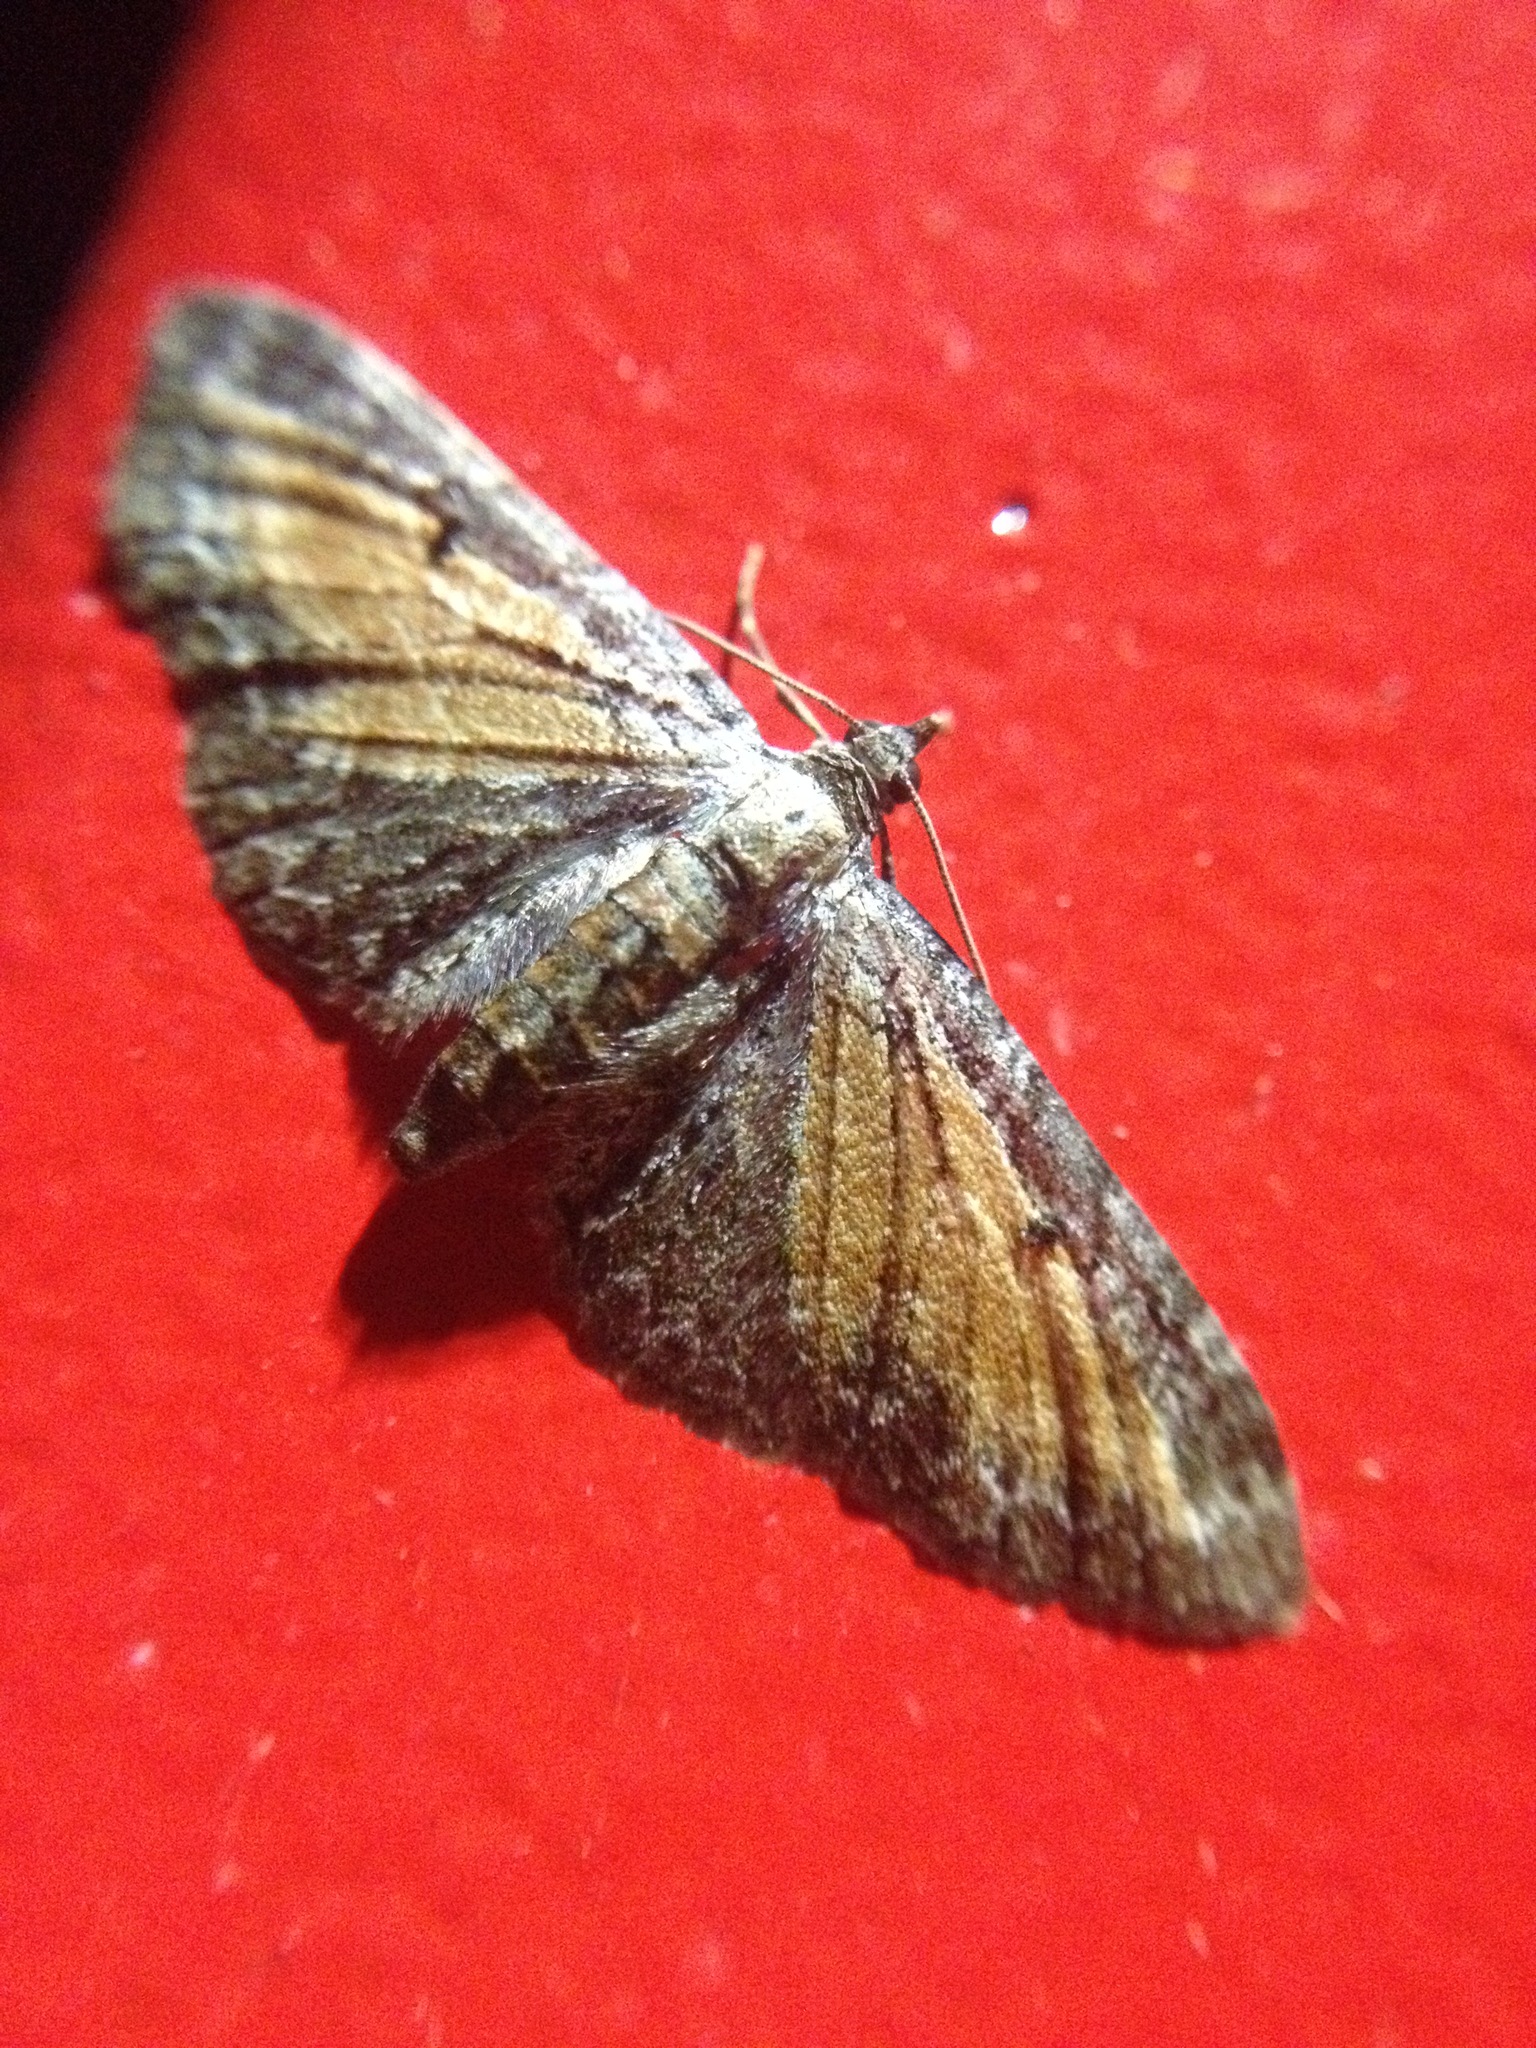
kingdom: Animalia
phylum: Arthropoda
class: Insecta
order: Lepidoptera
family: Geometridae
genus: Eupithecia
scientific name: Eupithecia icterata
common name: Tawny speckled pug
